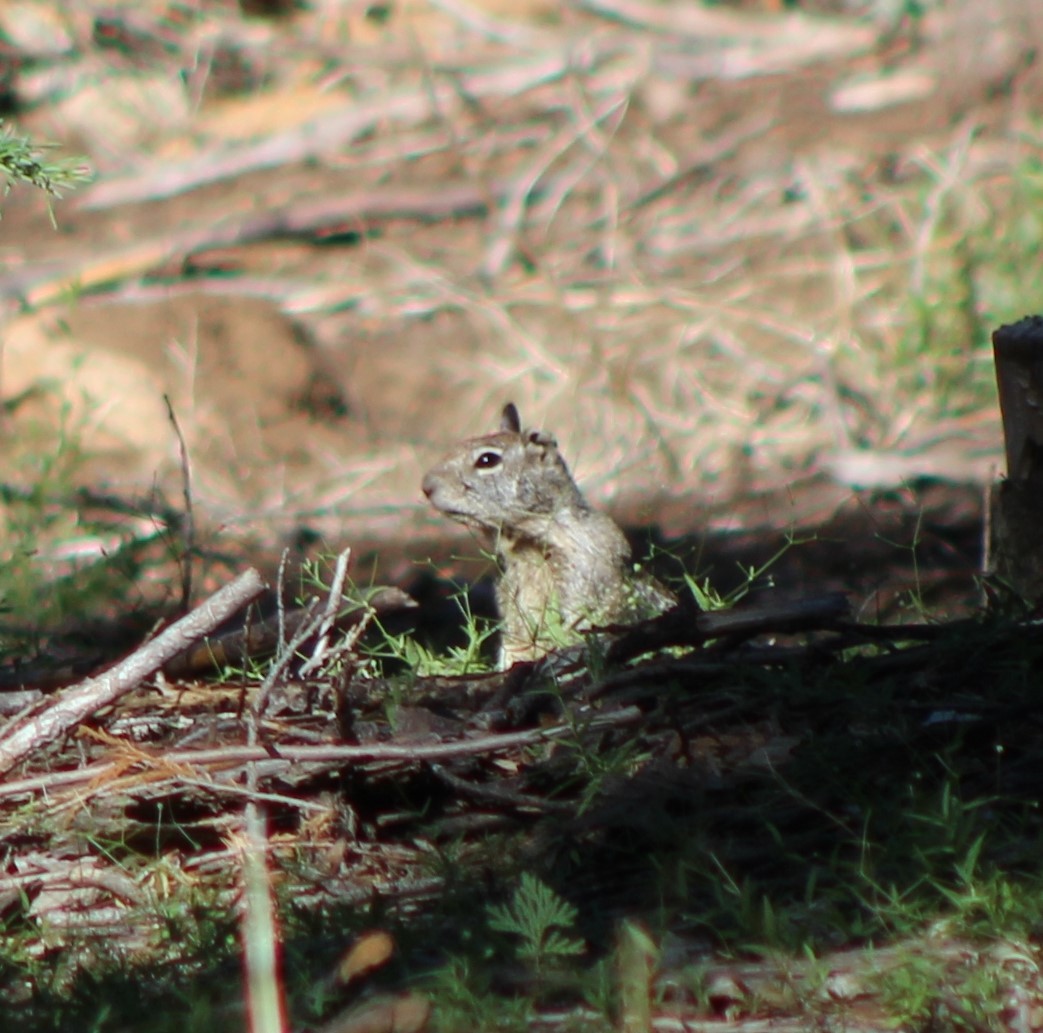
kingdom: Animalia
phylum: Chordata
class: Mammalia
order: Rodentia
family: Sciuridae
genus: Otospermophilus
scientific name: Otospermophilus beecheyi
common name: California ground squirrel
